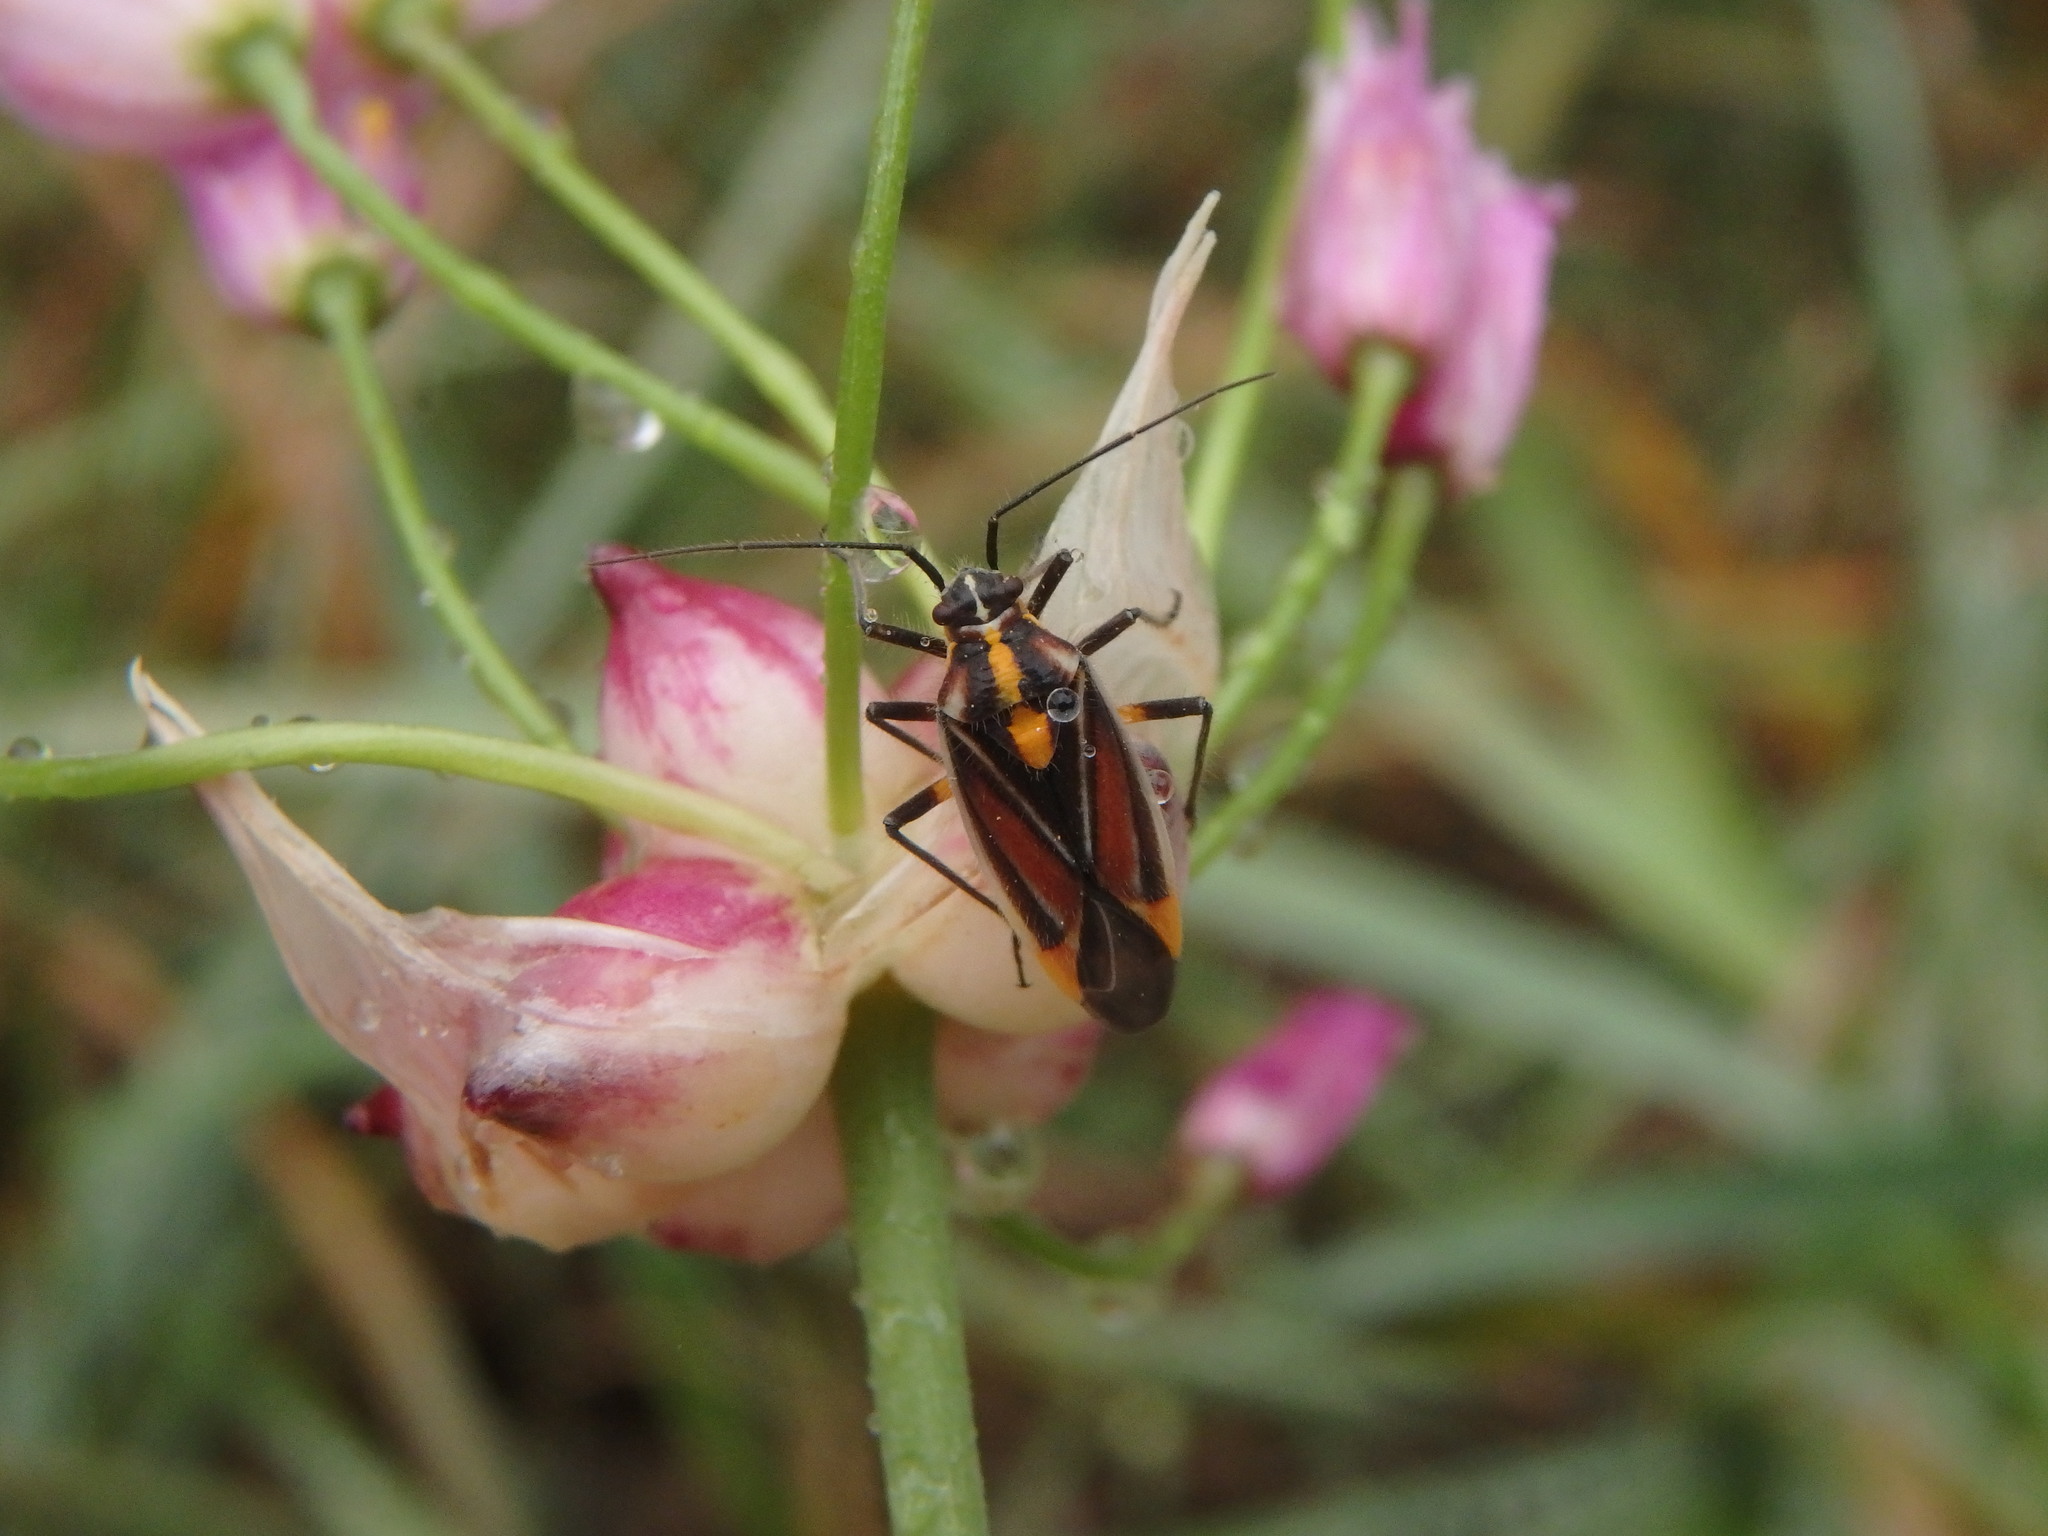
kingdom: Animalia
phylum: Arthropoda
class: Insecta
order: Hemiptera
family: Miridae
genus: Horistus
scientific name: Horistus orientalis
